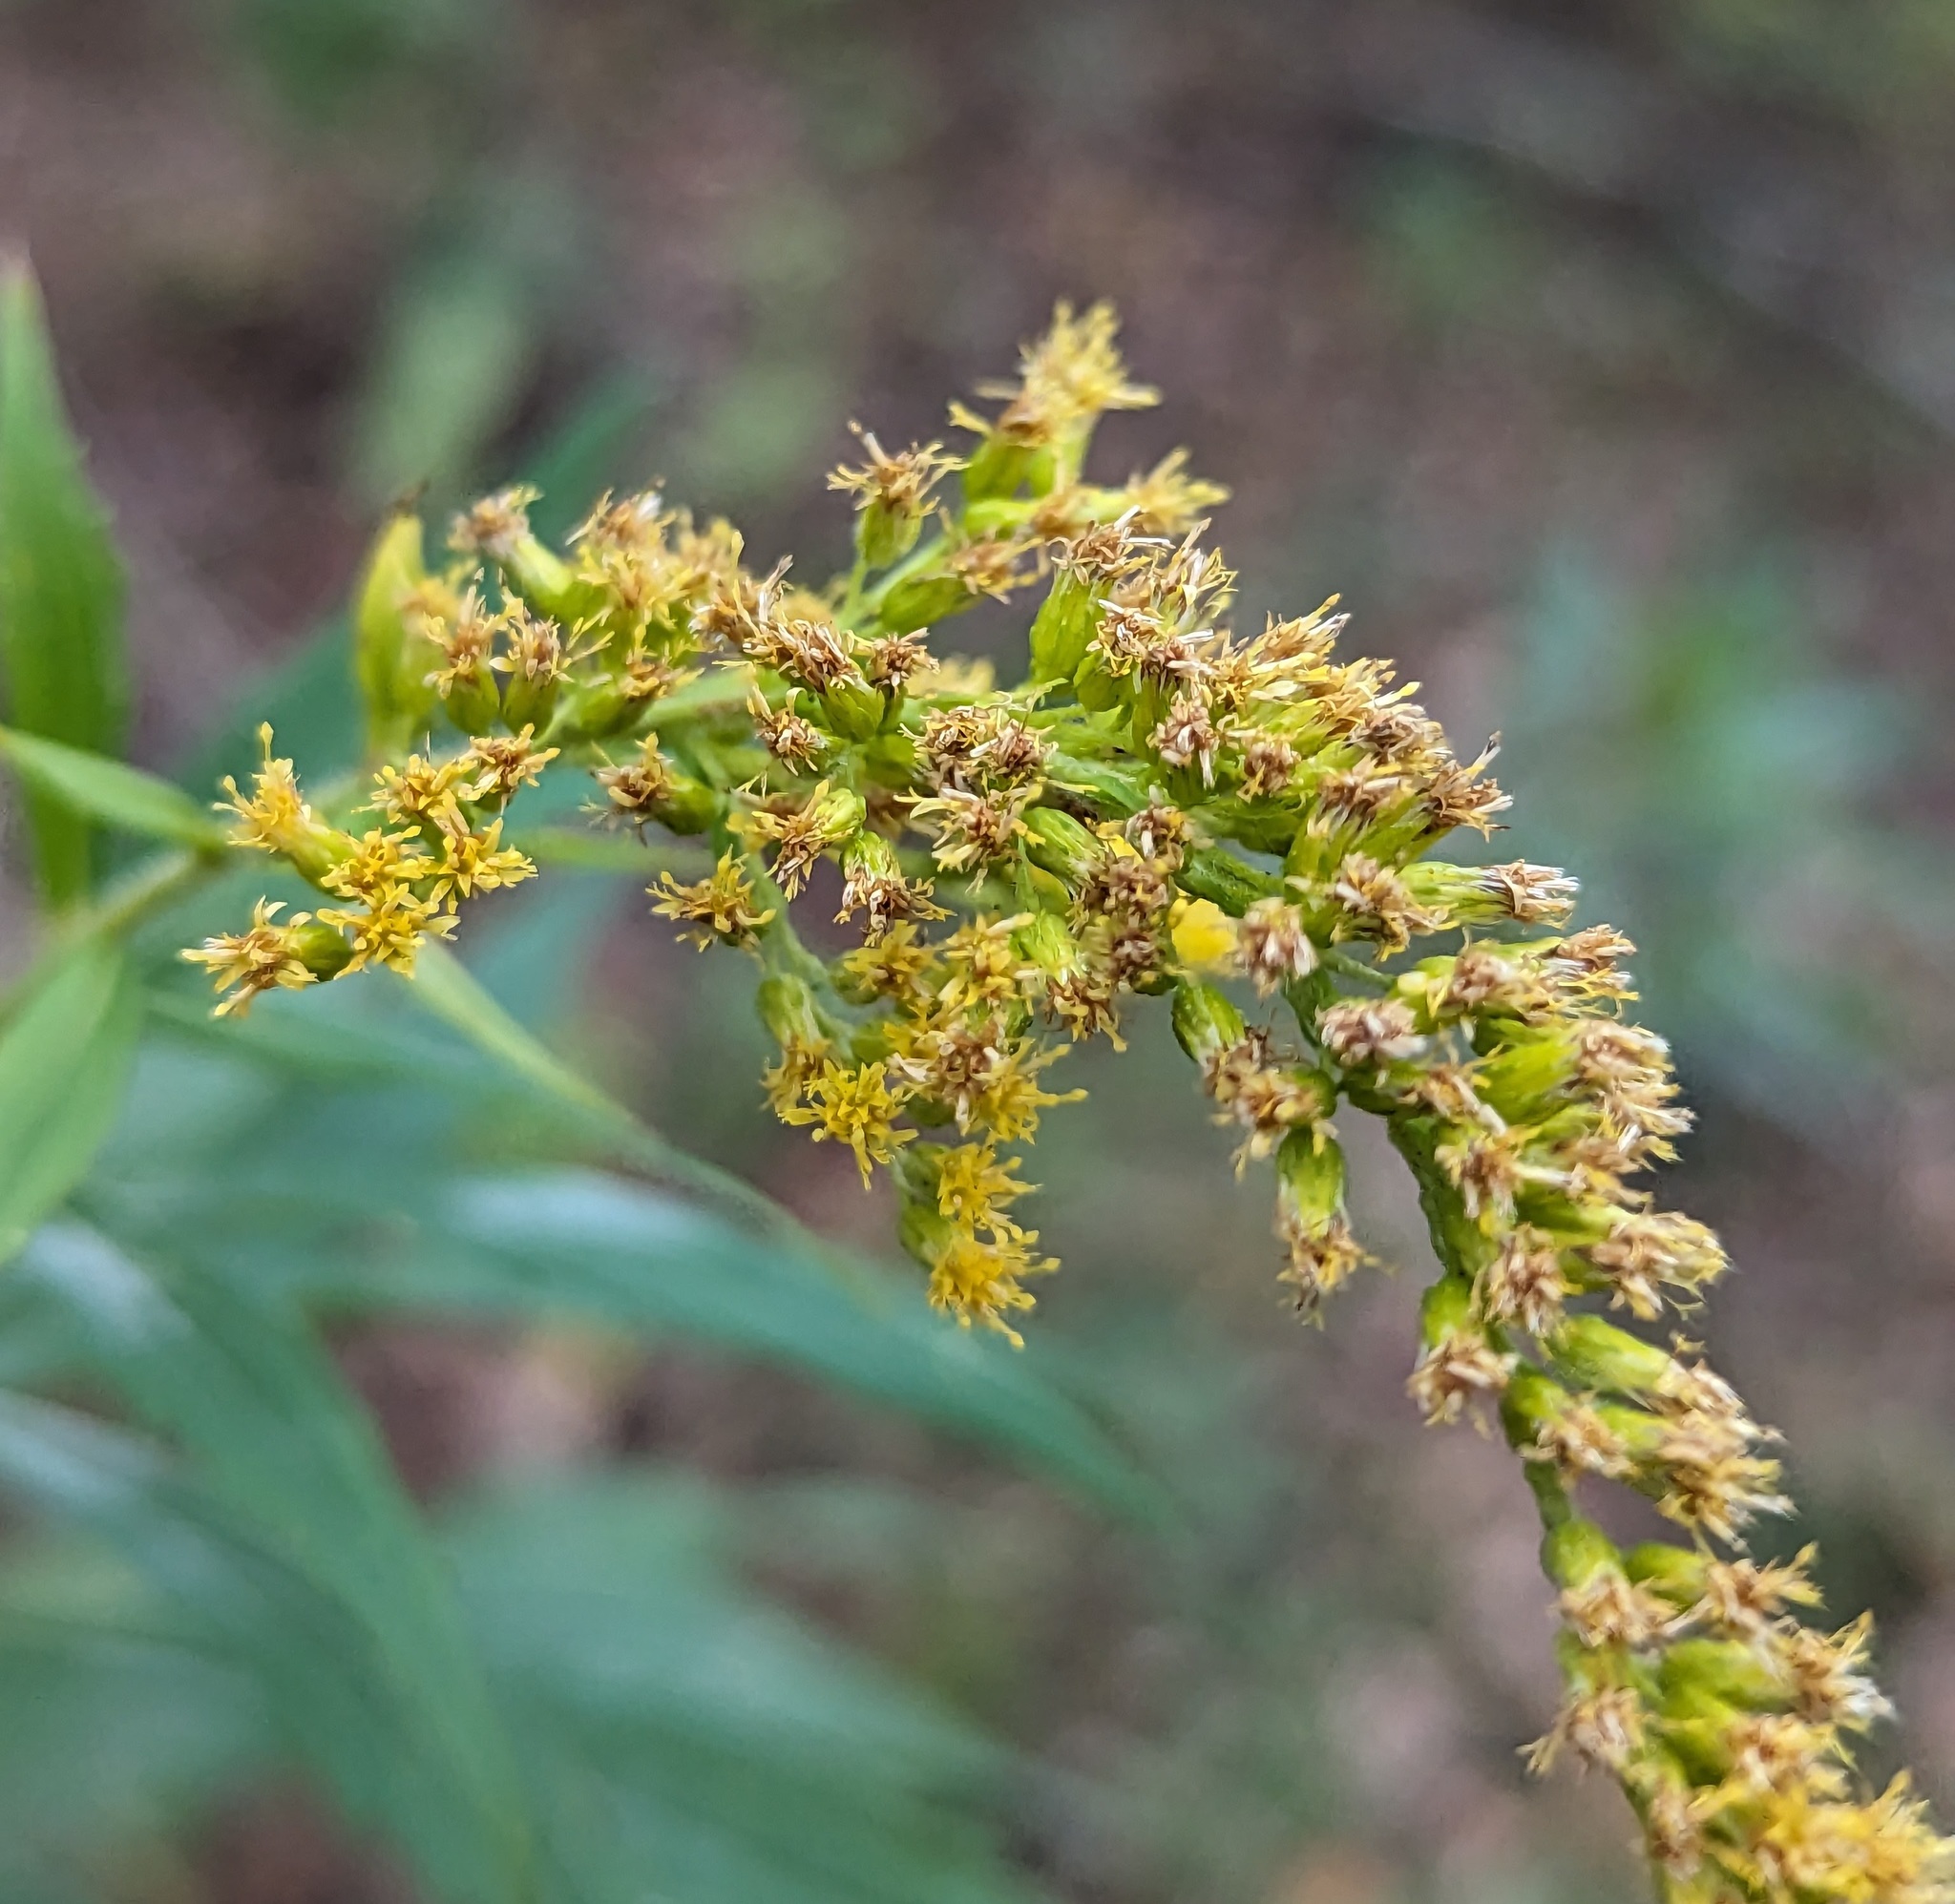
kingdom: Plantae
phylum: Tracheophyta
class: Magnoliopsida
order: Asterales
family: Asteraceae
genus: Solidago
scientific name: Solidago canadensis
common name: Canada goldenrod
